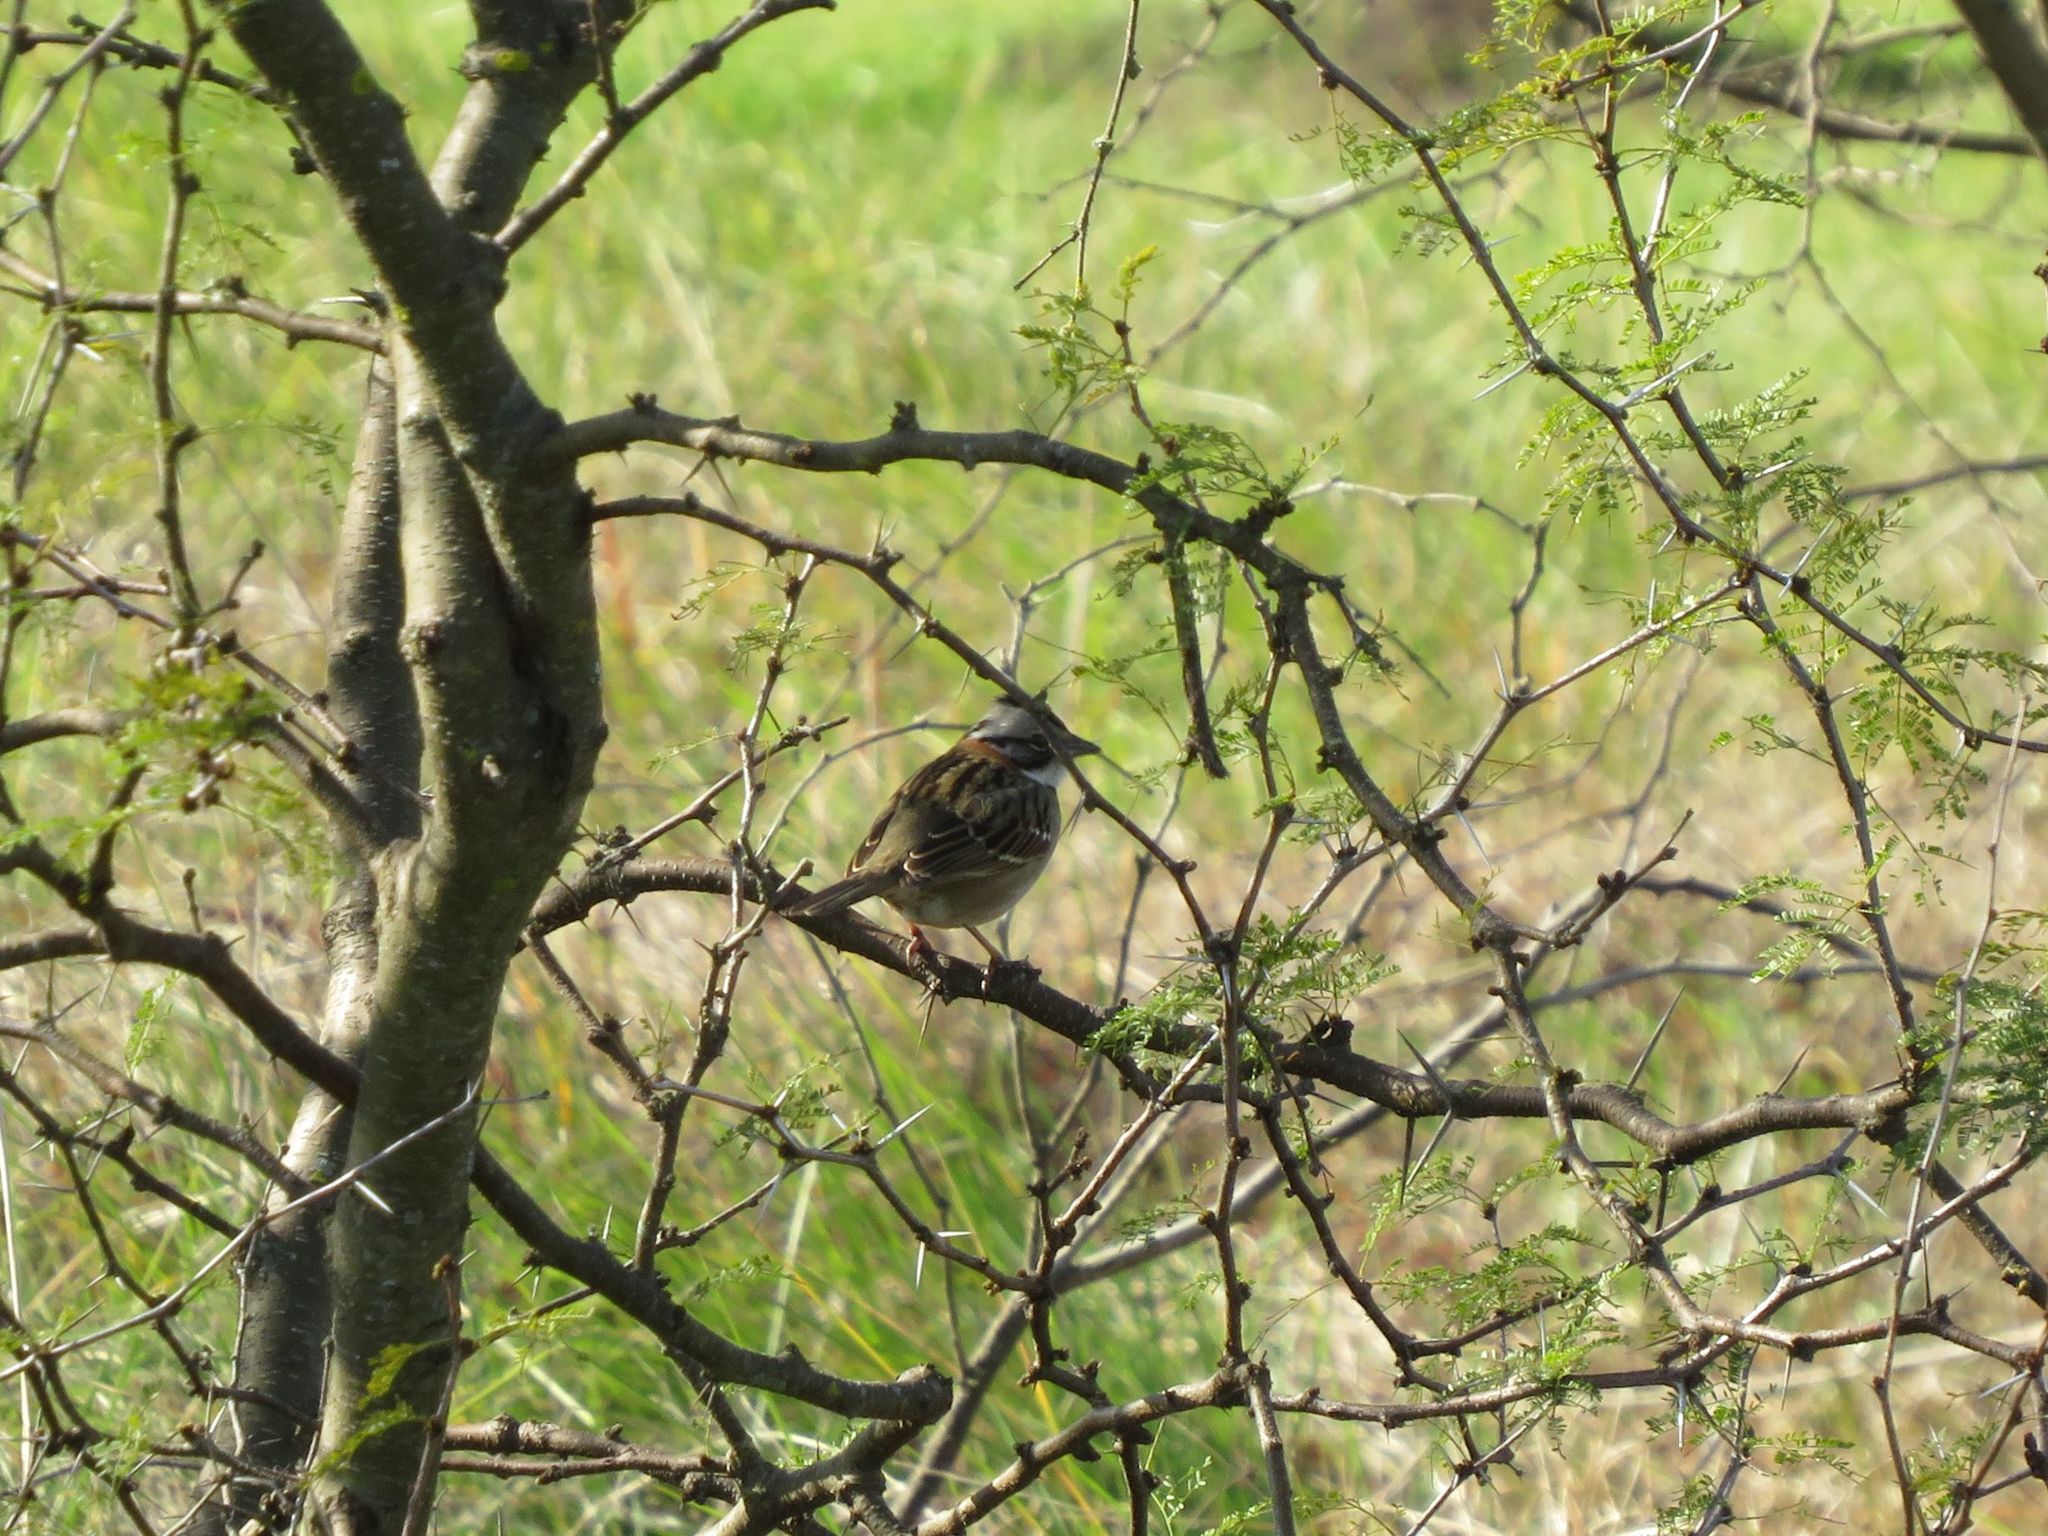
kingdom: Animalia
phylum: Chordata
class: Aves
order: Passeriformes
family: Passerellidae
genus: Zonotrichia
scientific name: Zonotrichia capensis
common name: Rufous-collared sparrow
